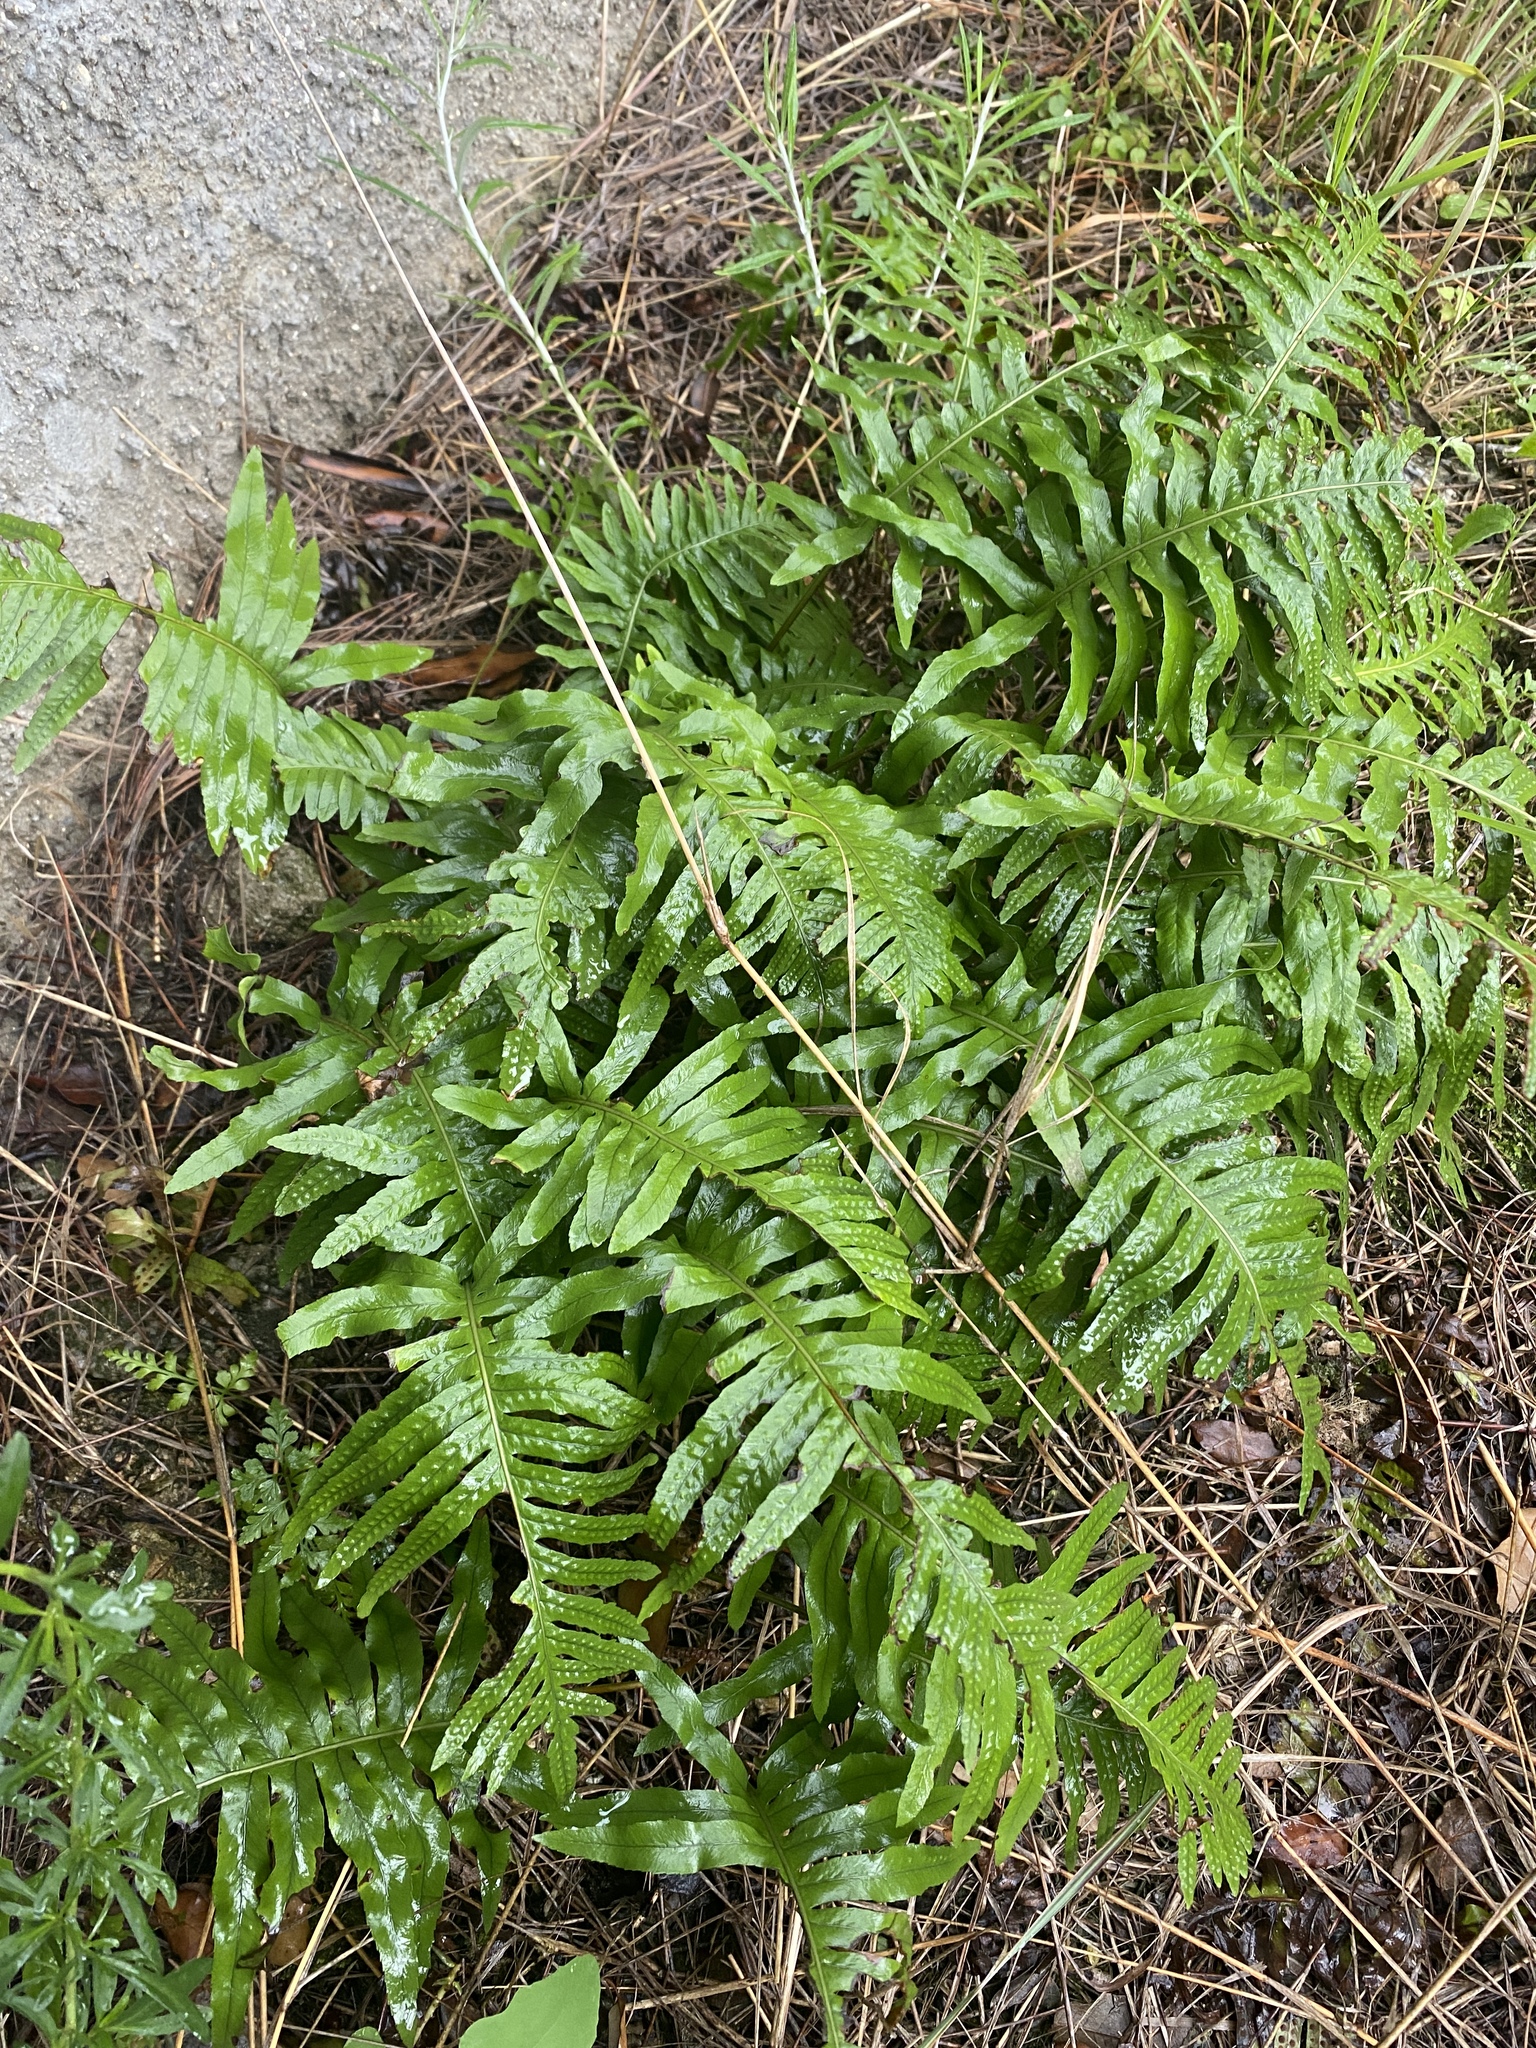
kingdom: Plantae
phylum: Tracheophyta
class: Polypodiopsida
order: Polypodiales
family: Polypodiaceae
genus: Polypodium
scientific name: Polypodium cambricum
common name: Southern polypody
